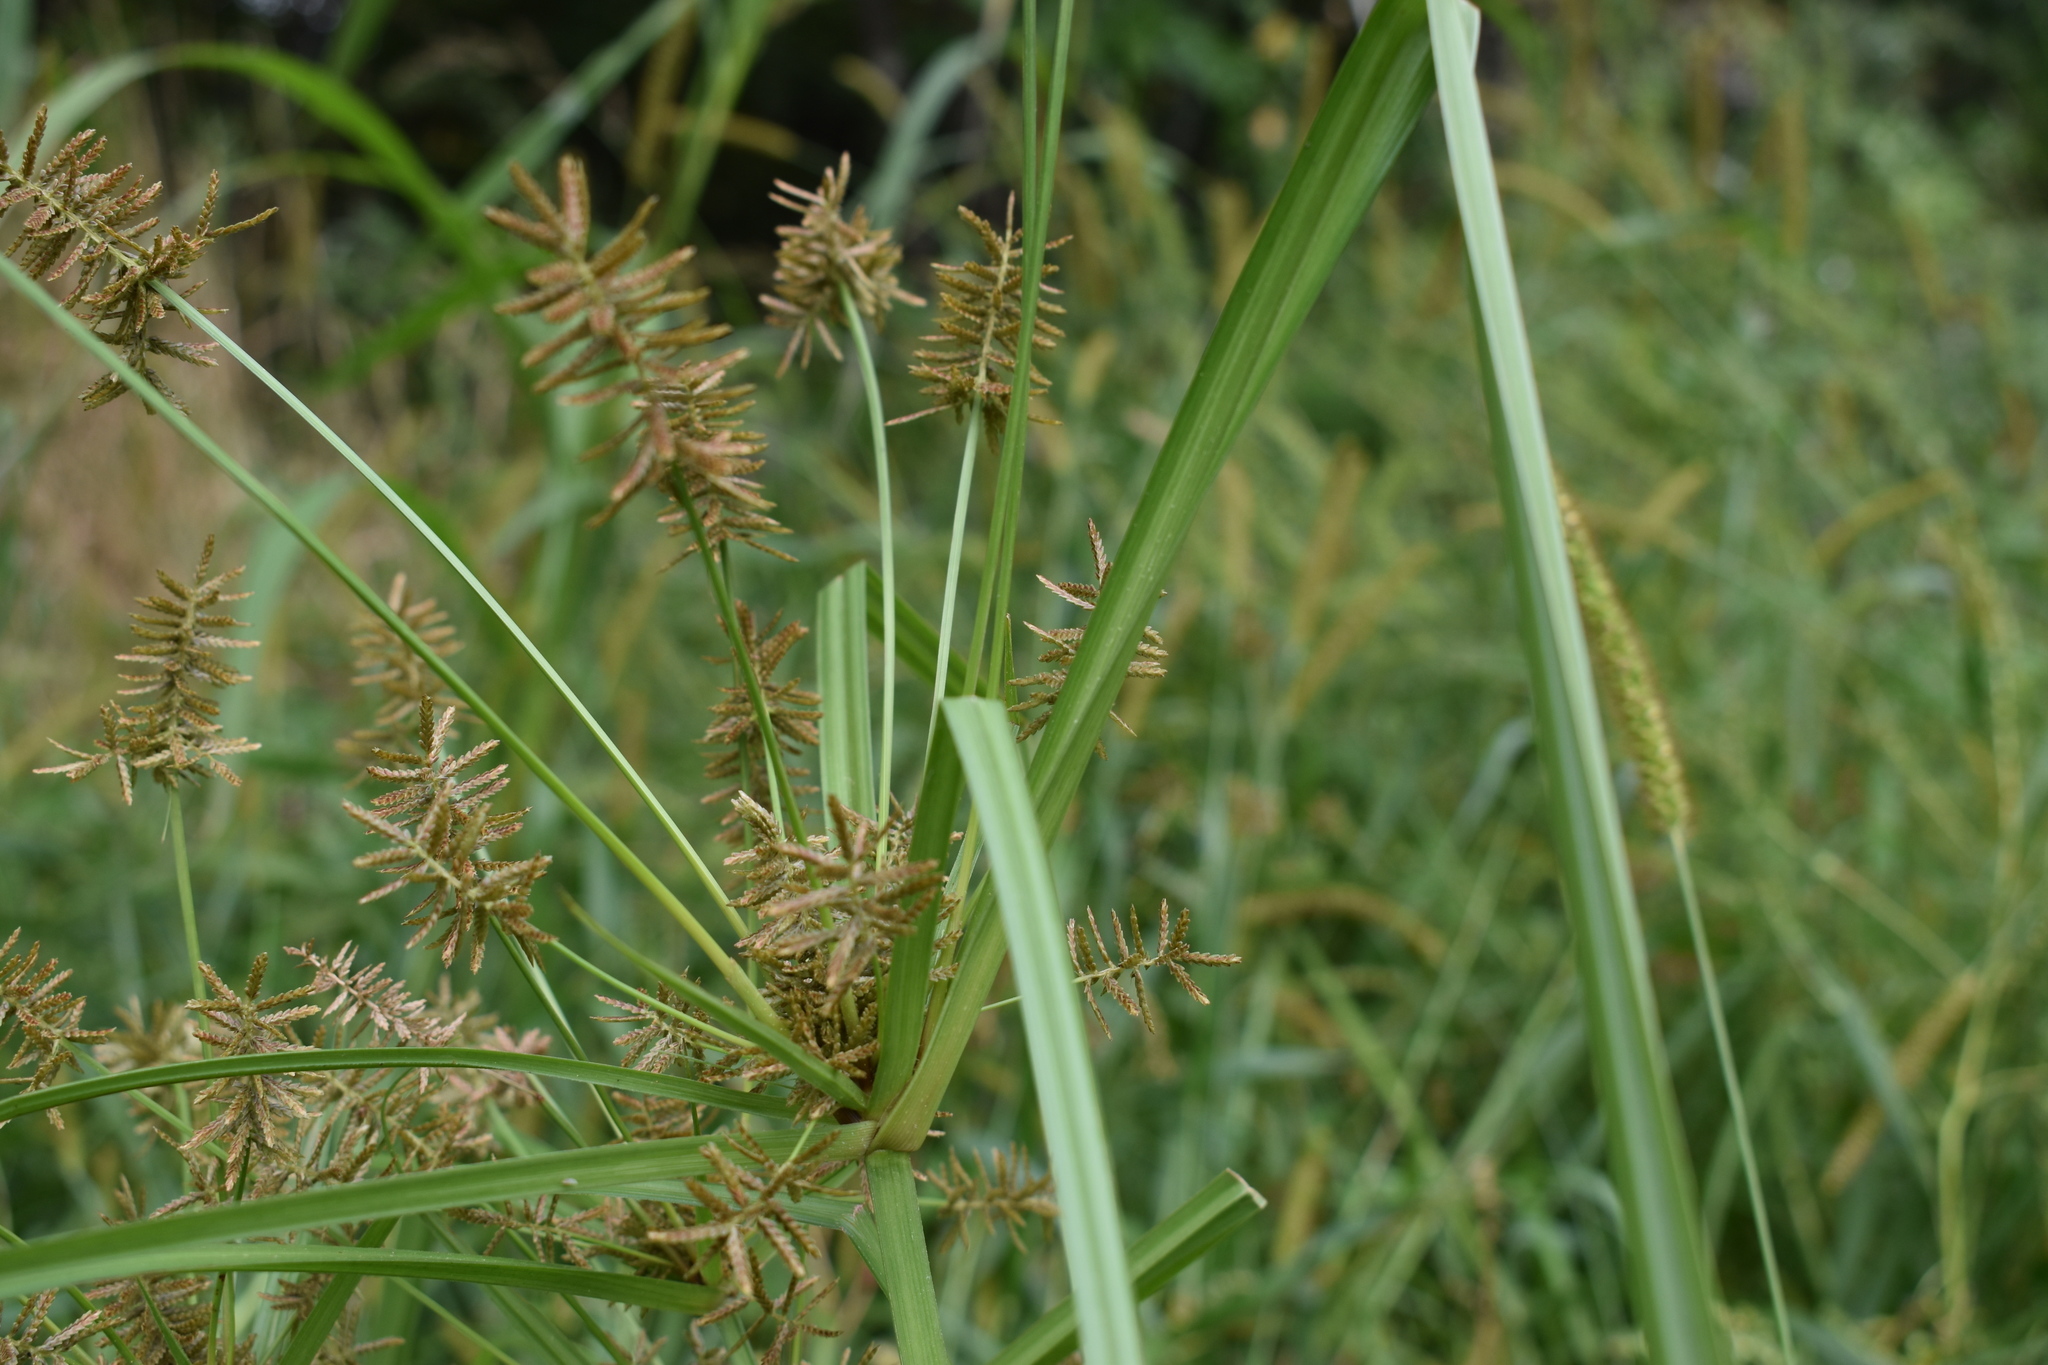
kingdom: Plantae
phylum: Tracheophyta
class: Liliopsida
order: Poales
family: Cyperaceae
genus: Cyperus
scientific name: Cyperus orthostachyus
